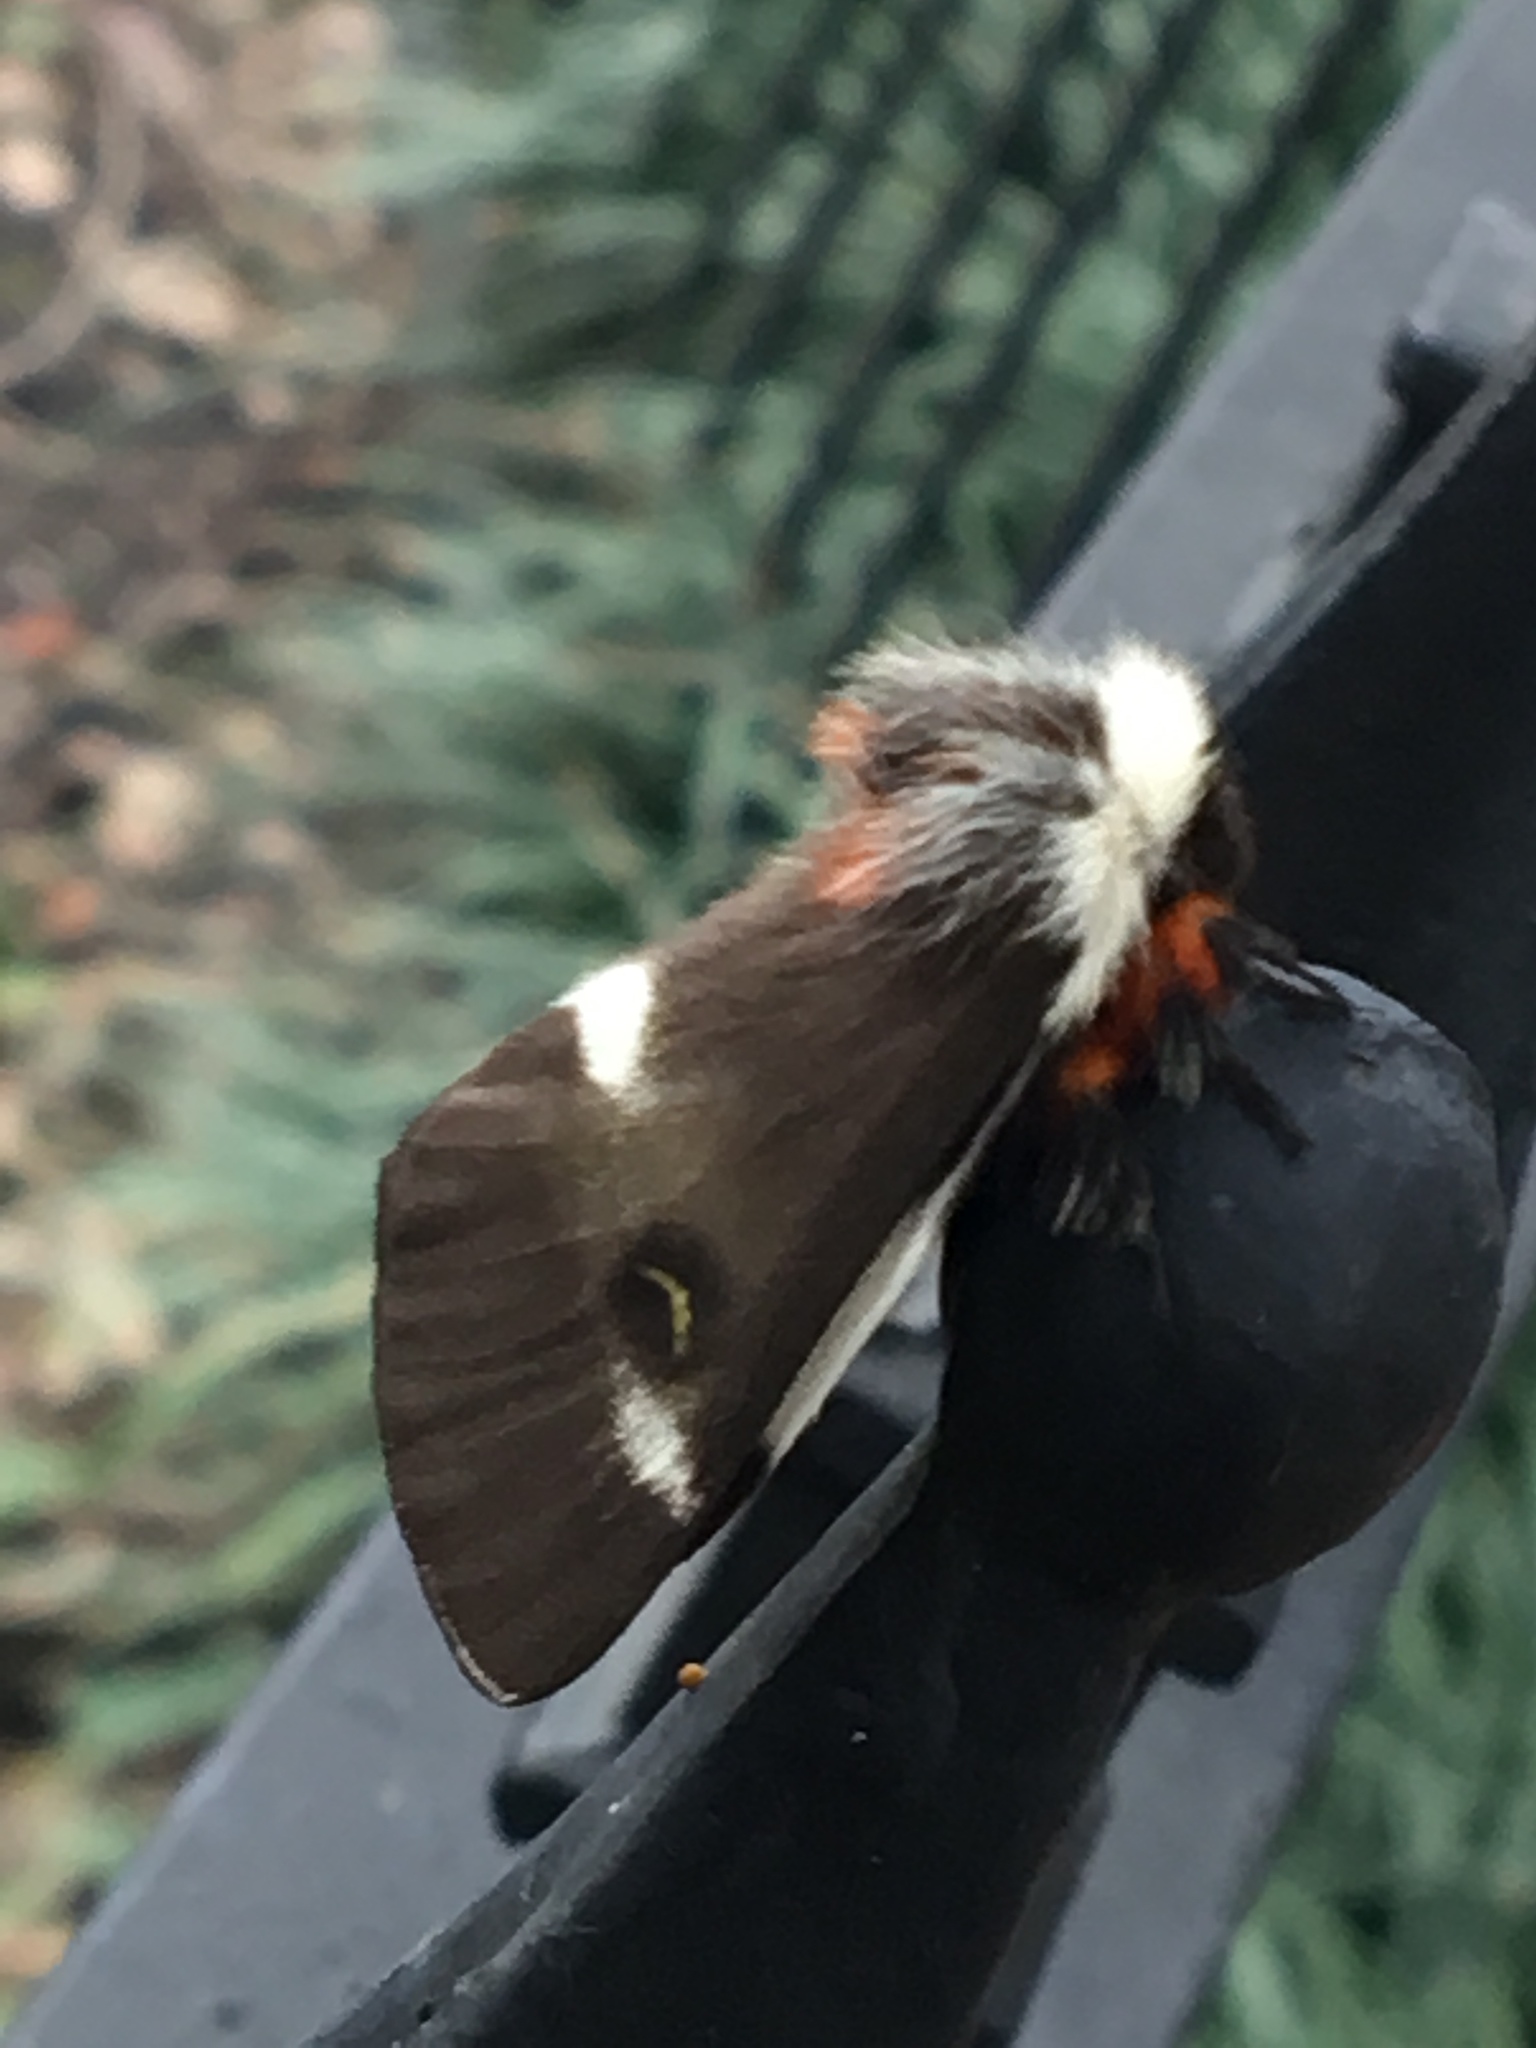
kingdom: Animalia
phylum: Arthropoda
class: Insecta
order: Lepidoptera
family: Saturniidae
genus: Hemileuca
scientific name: Hemileuca maia
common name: Eastern buckmoth
